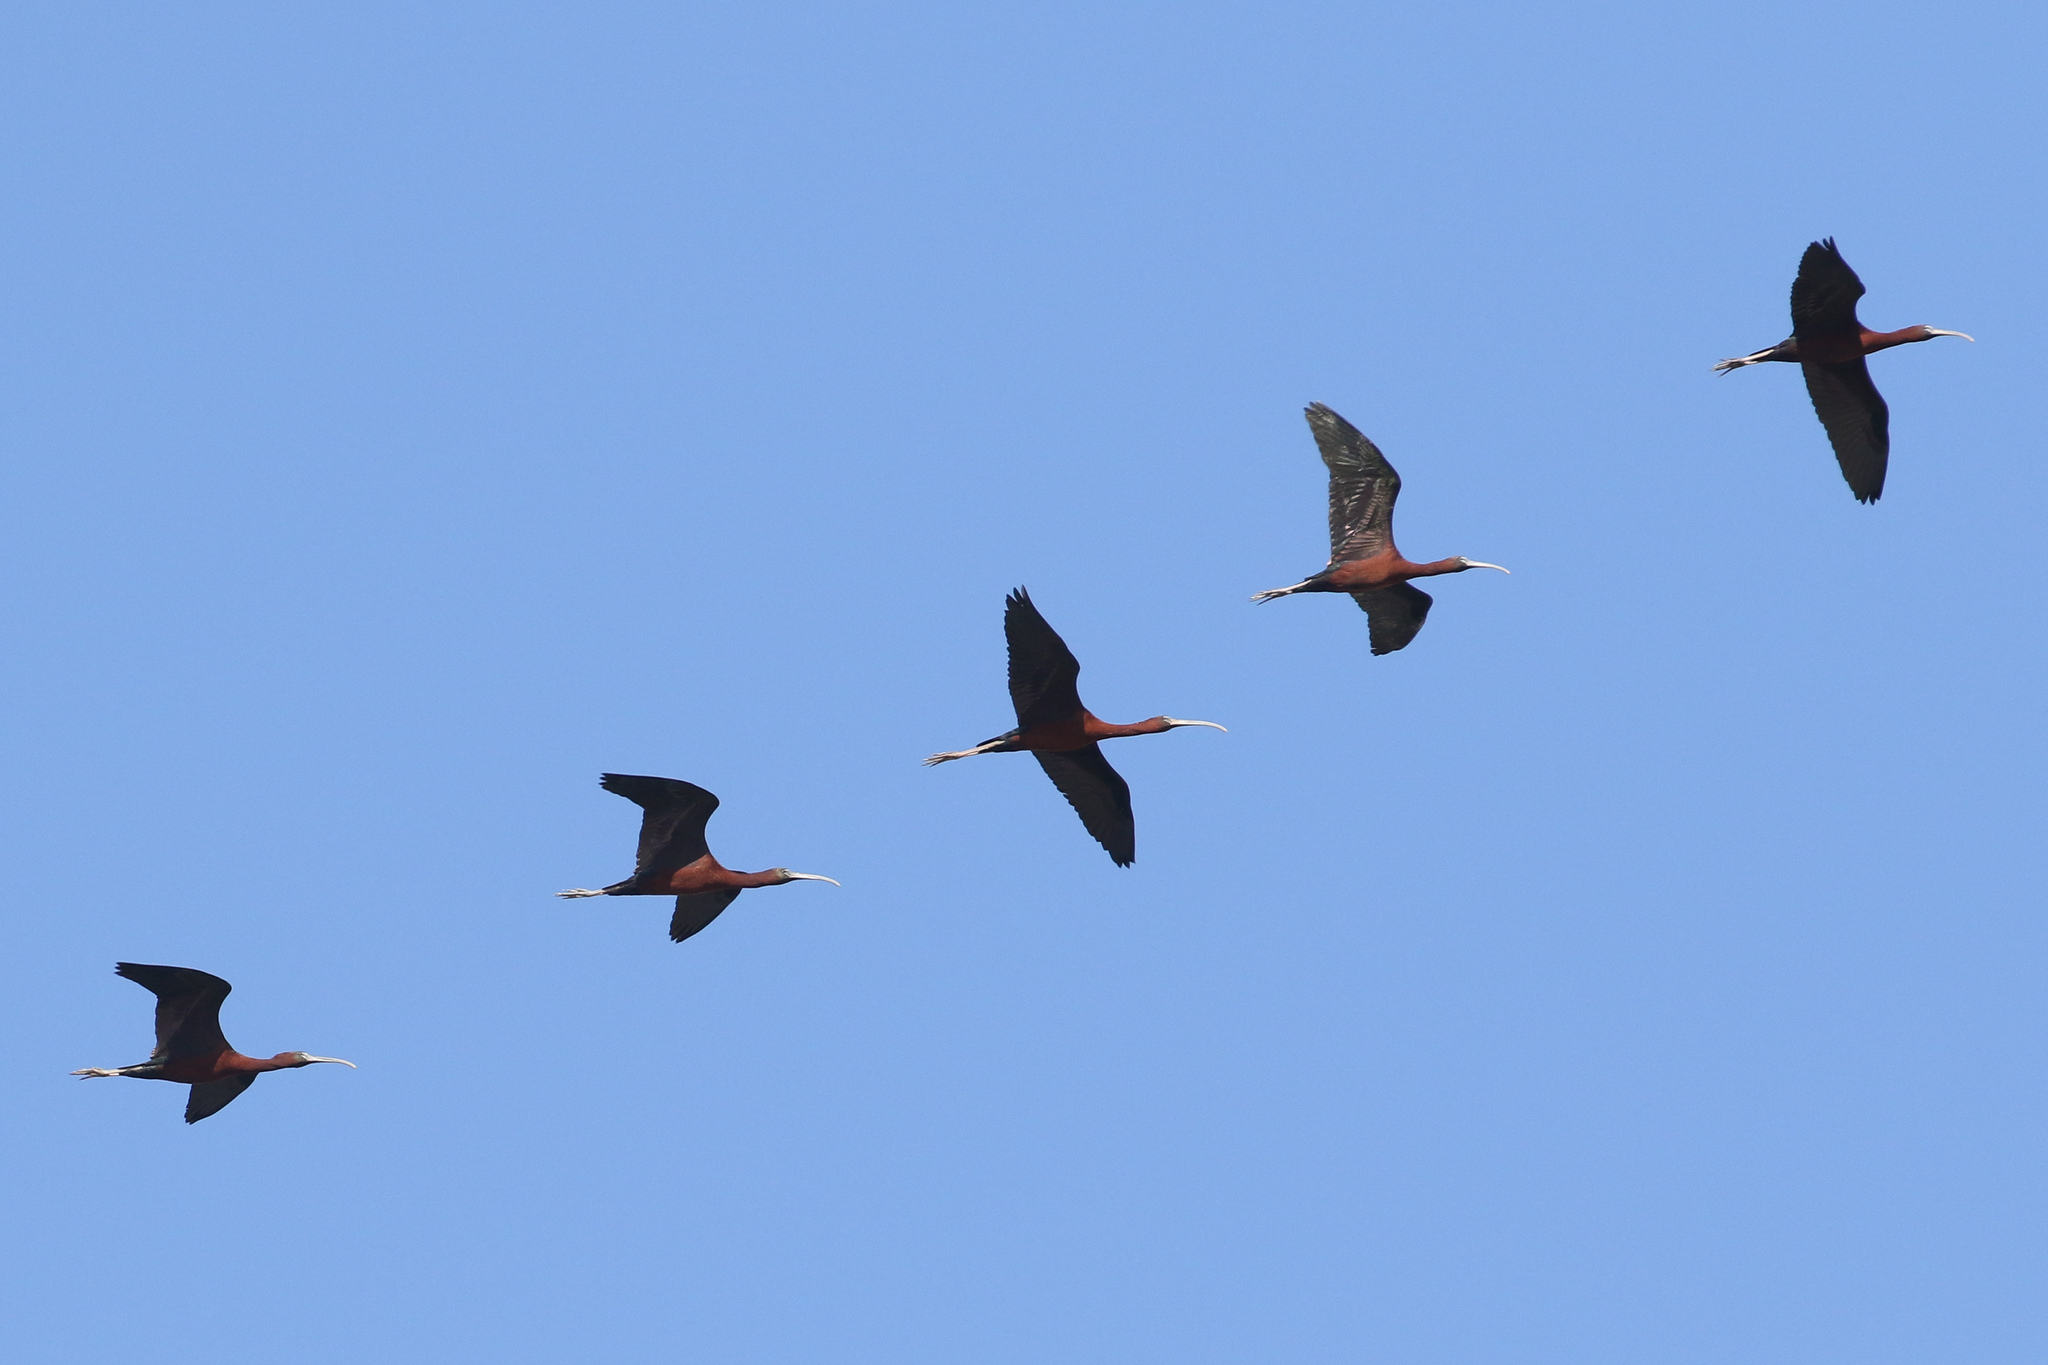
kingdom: Animalia
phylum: Chordata
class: Aves
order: Pelecaniformes
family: Threskiornithidae
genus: Plegadis
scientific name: Plegadis falcinellus
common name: Glossy ibis
